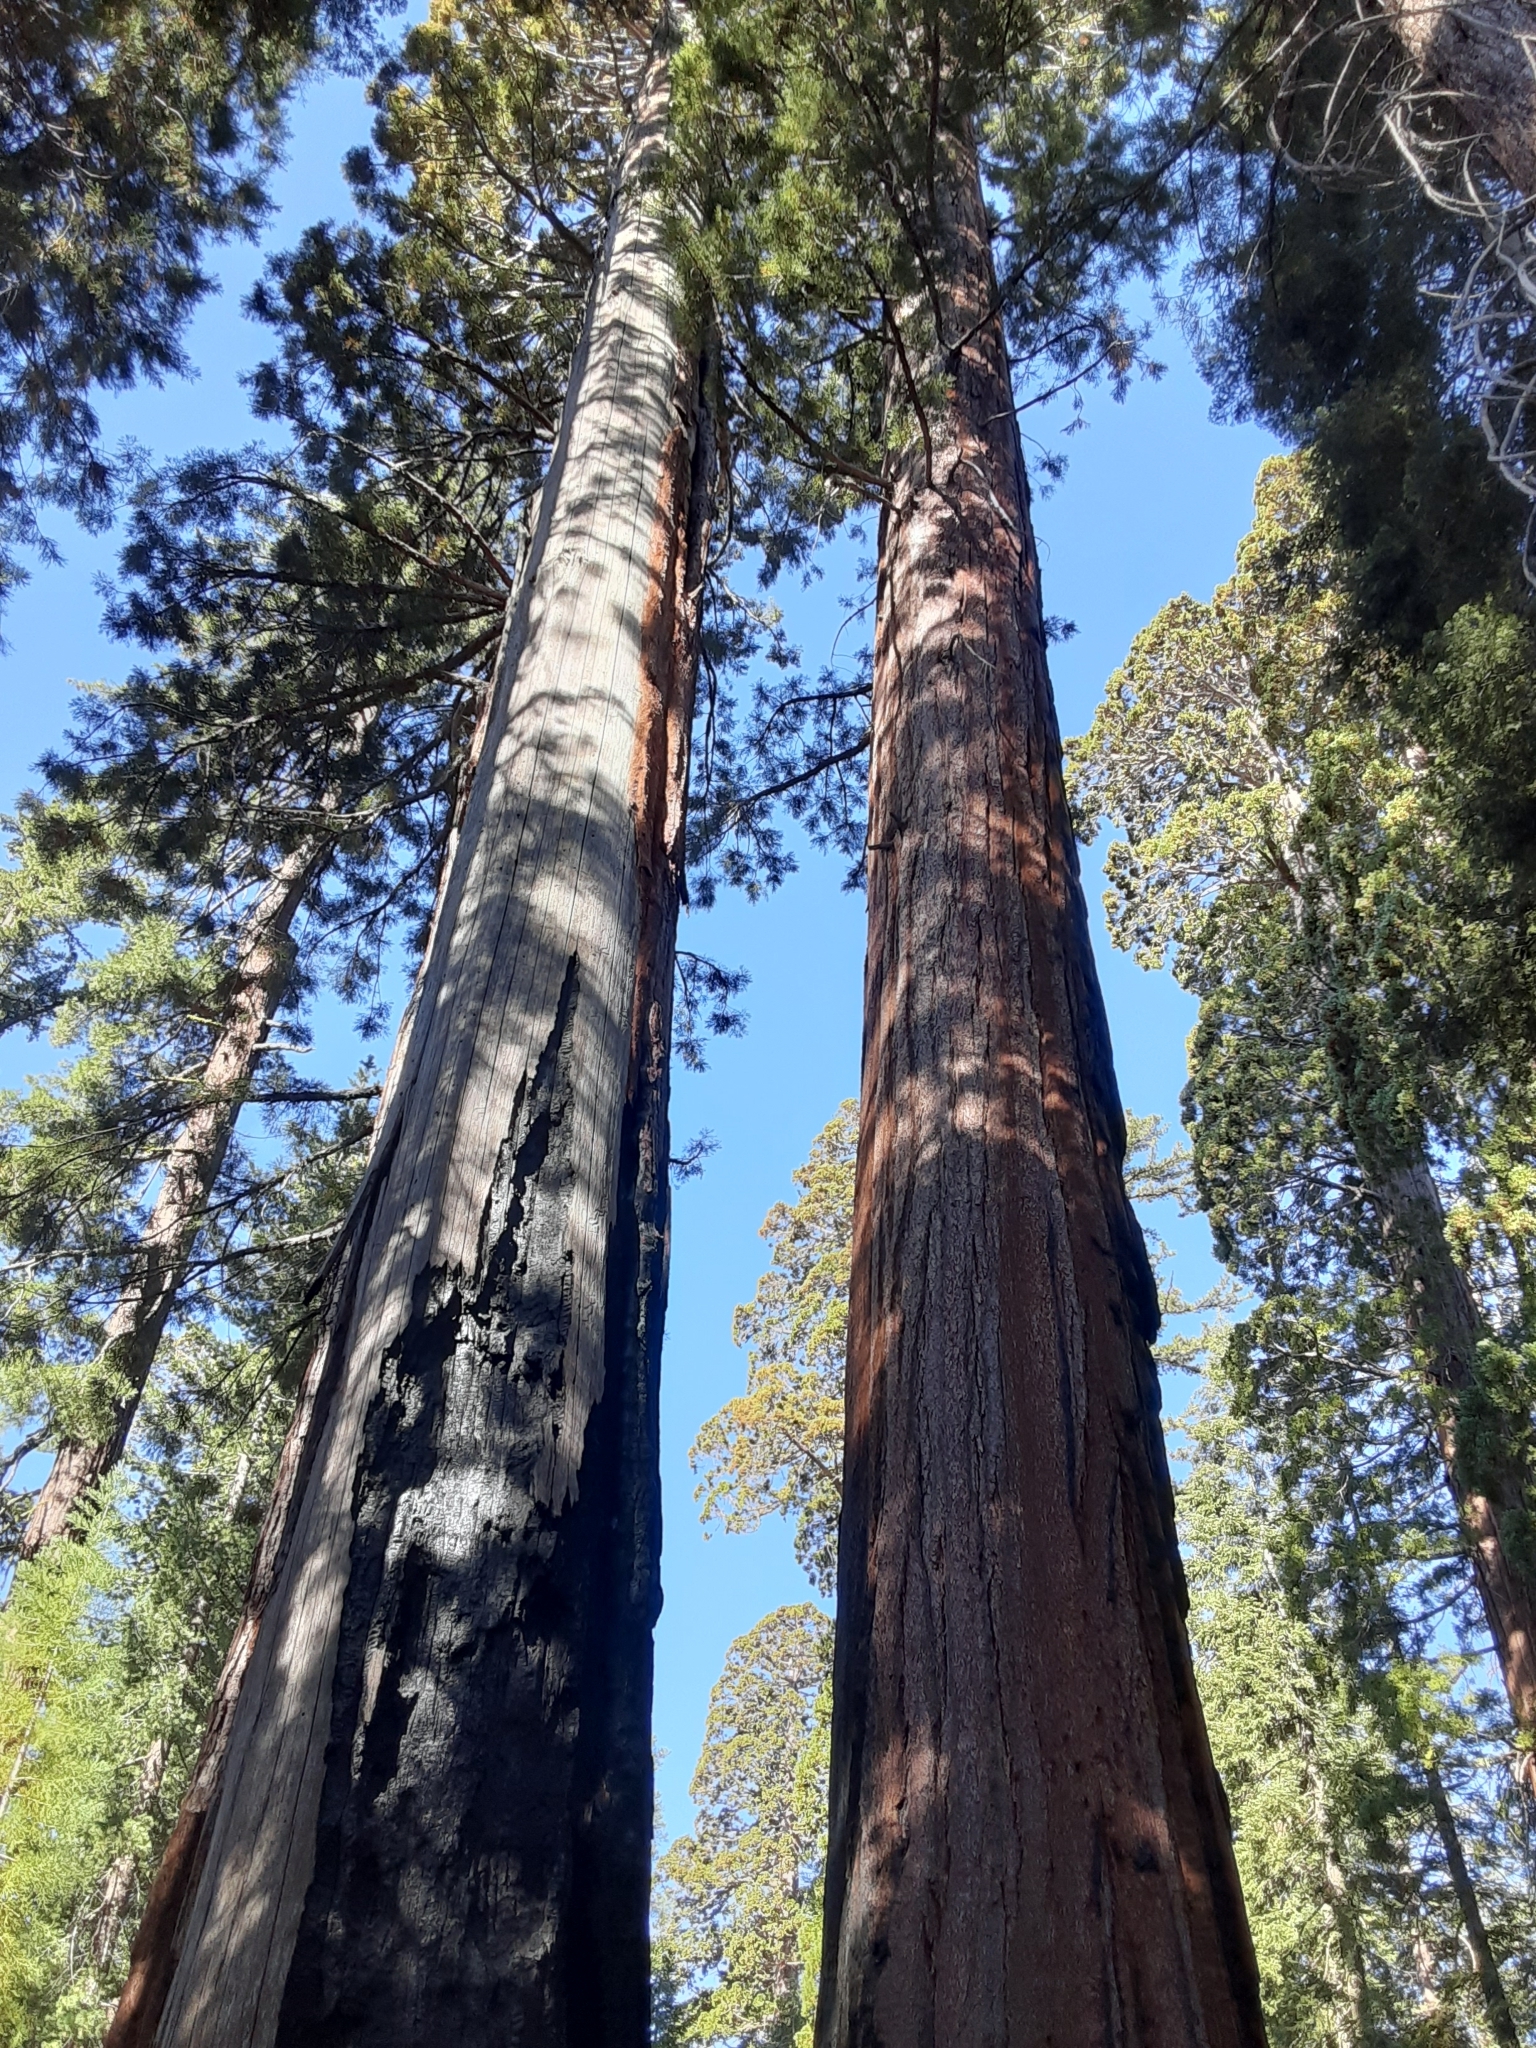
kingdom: Plantae
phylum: Tracheophyta
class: Pinopsida
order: Pinales
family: Cupressaceae
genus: Sequoiadendron
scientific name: Sequoiadendron giganteum
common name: Wellingtonia
